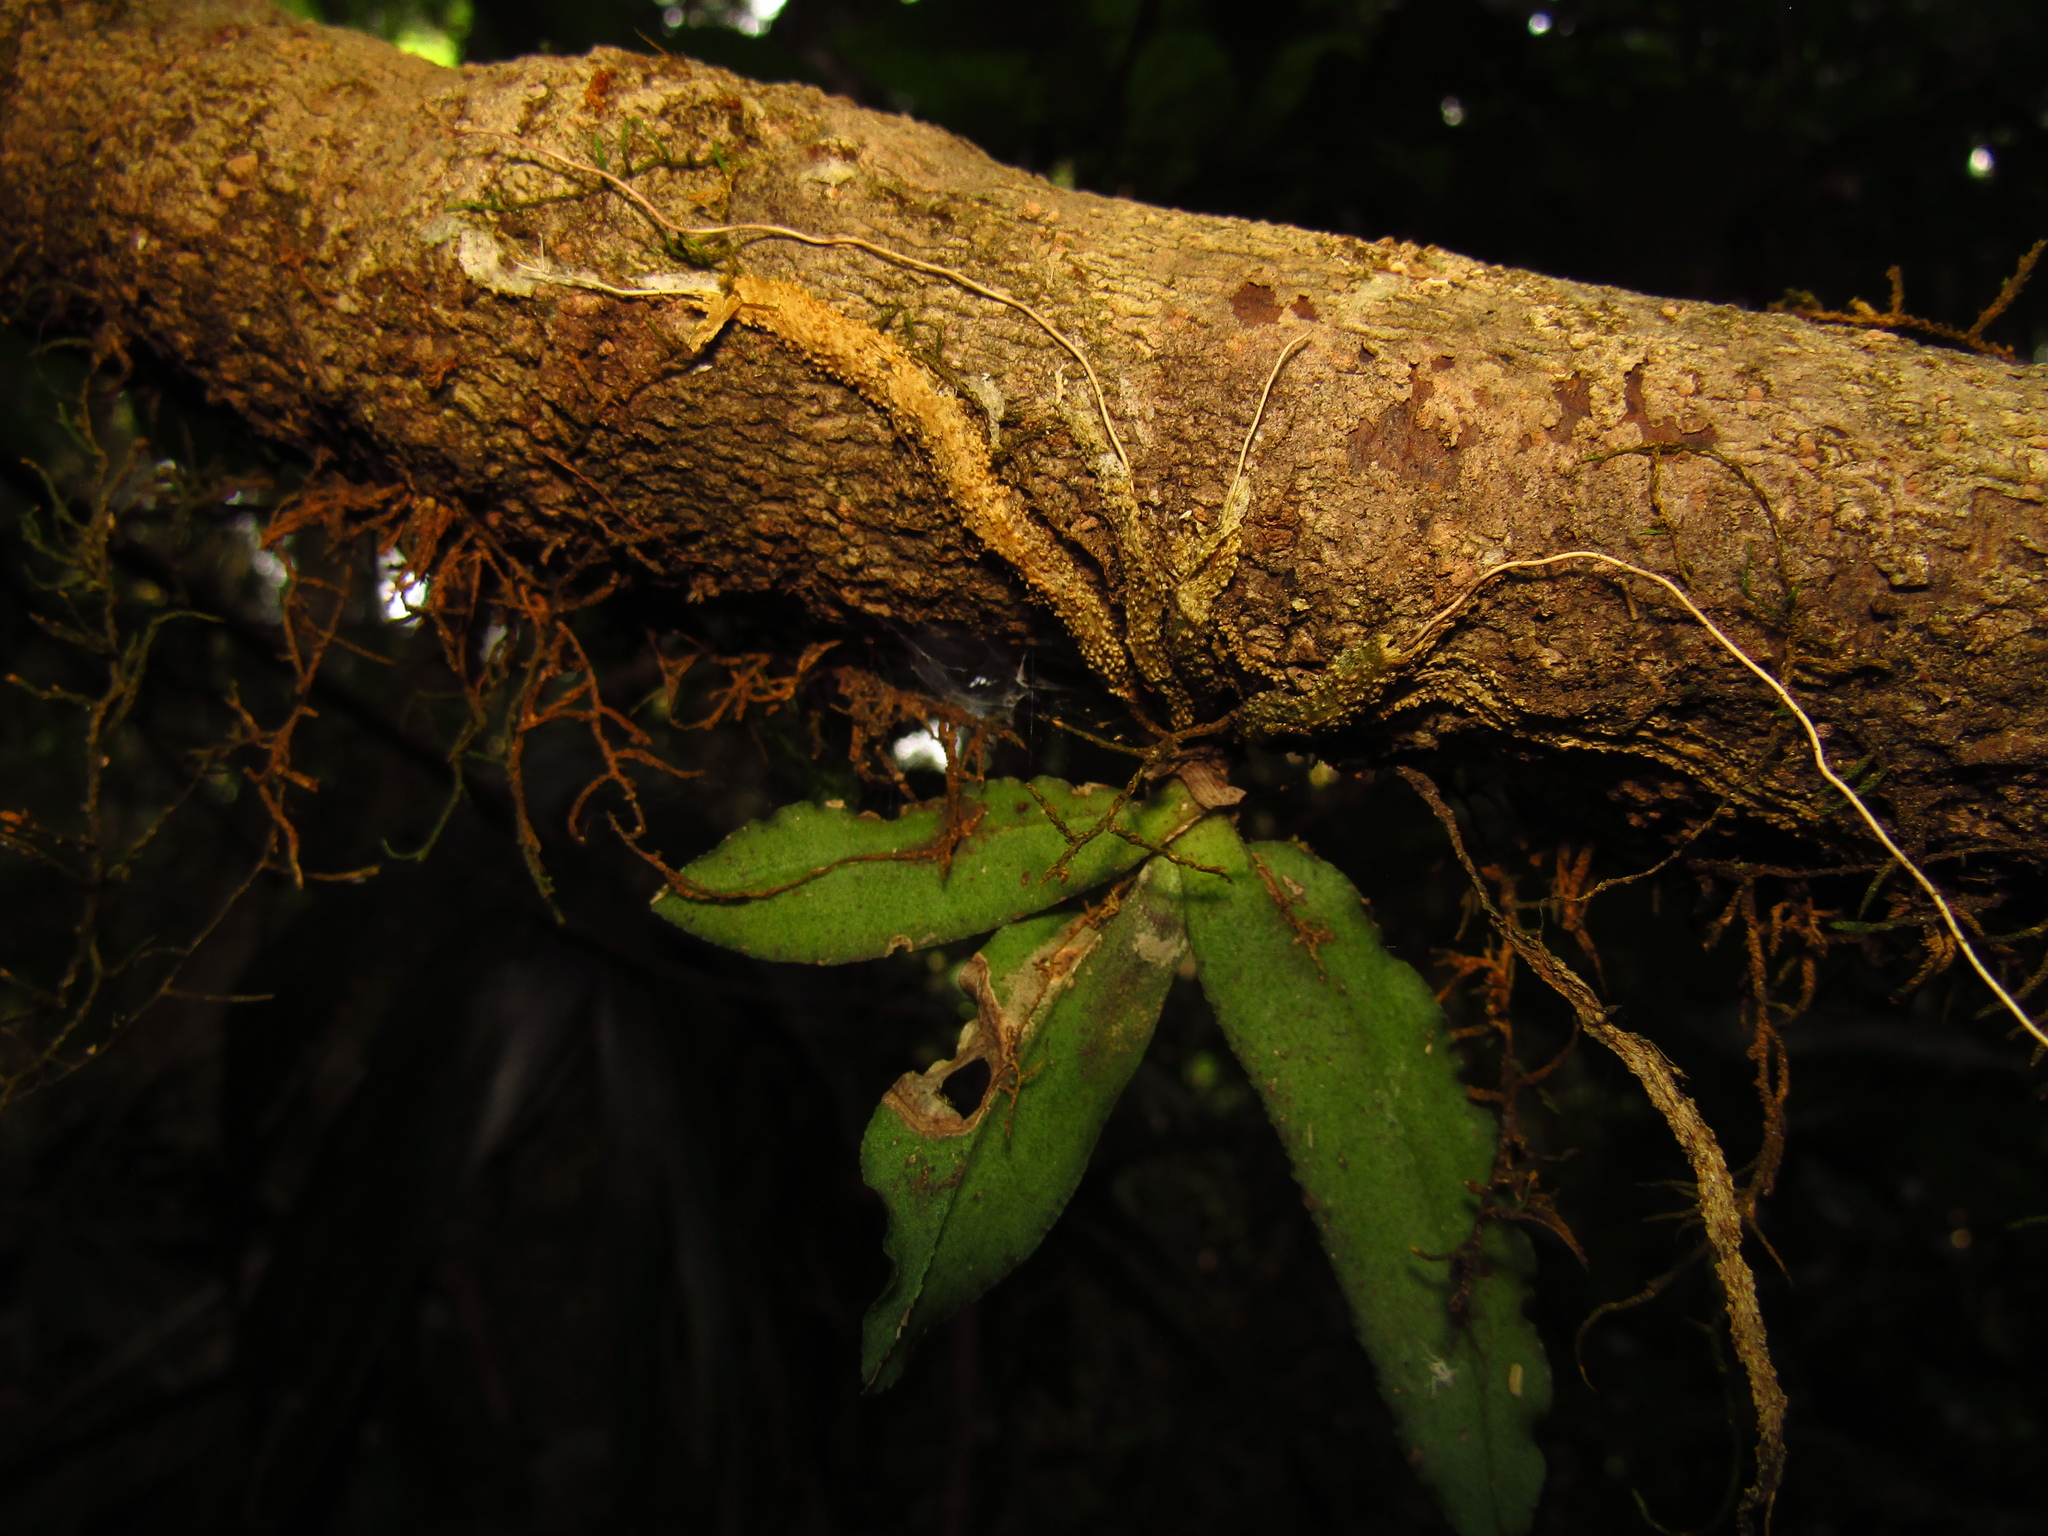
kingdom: Plantae
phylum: Tracheophyta
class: Liliopsida
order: Asparagales
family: Orchidaceae
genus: Rhinerrhiza
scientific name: Rhinerrhiza divitiflora
